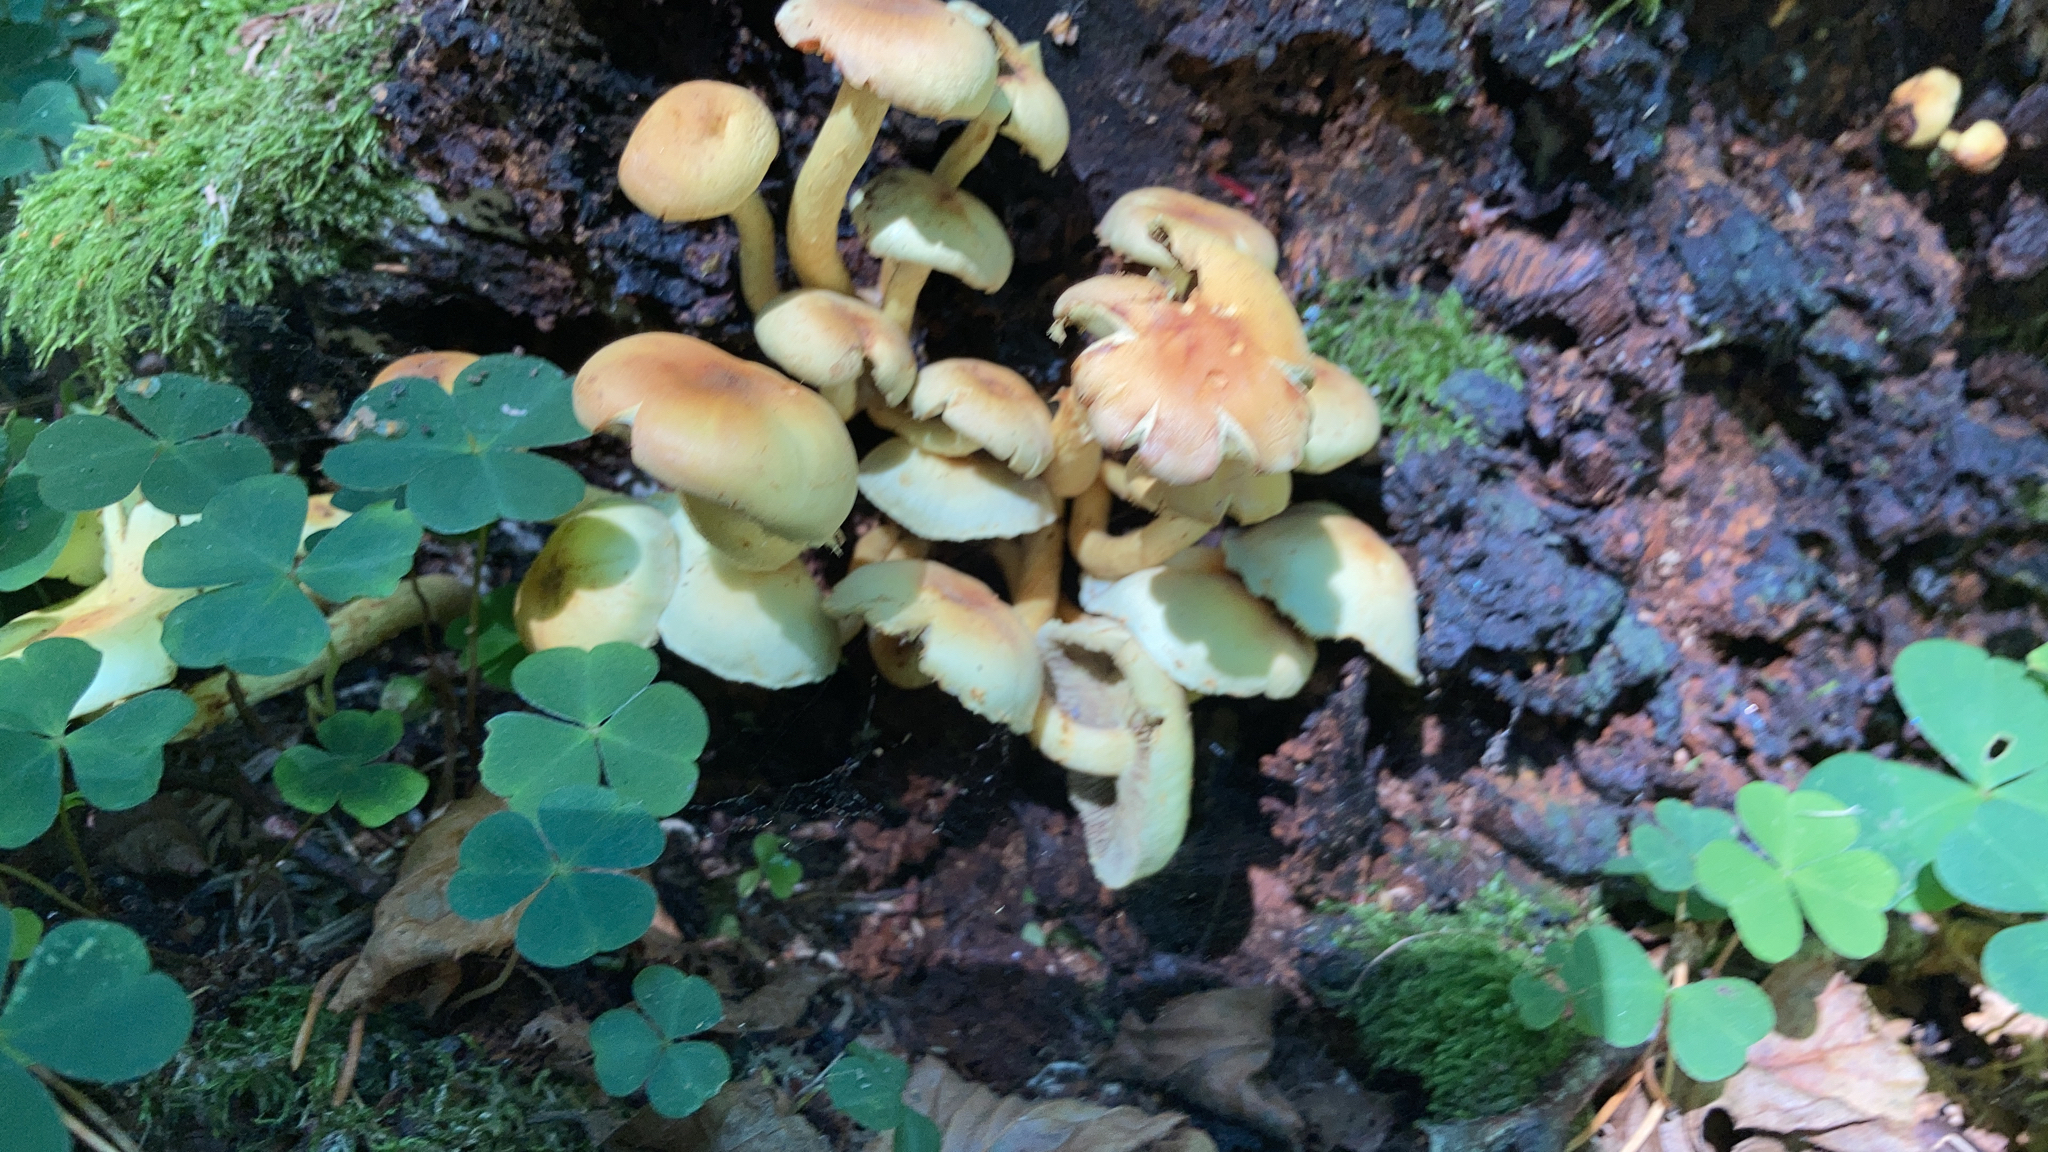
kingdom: Fungi
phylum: Basidiomycota
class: Agaricomycetes
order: Agaricales
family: Strophariaceae
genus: Hypholoma
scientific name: Hypholoma fasciculare
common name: Sulphur tuft
